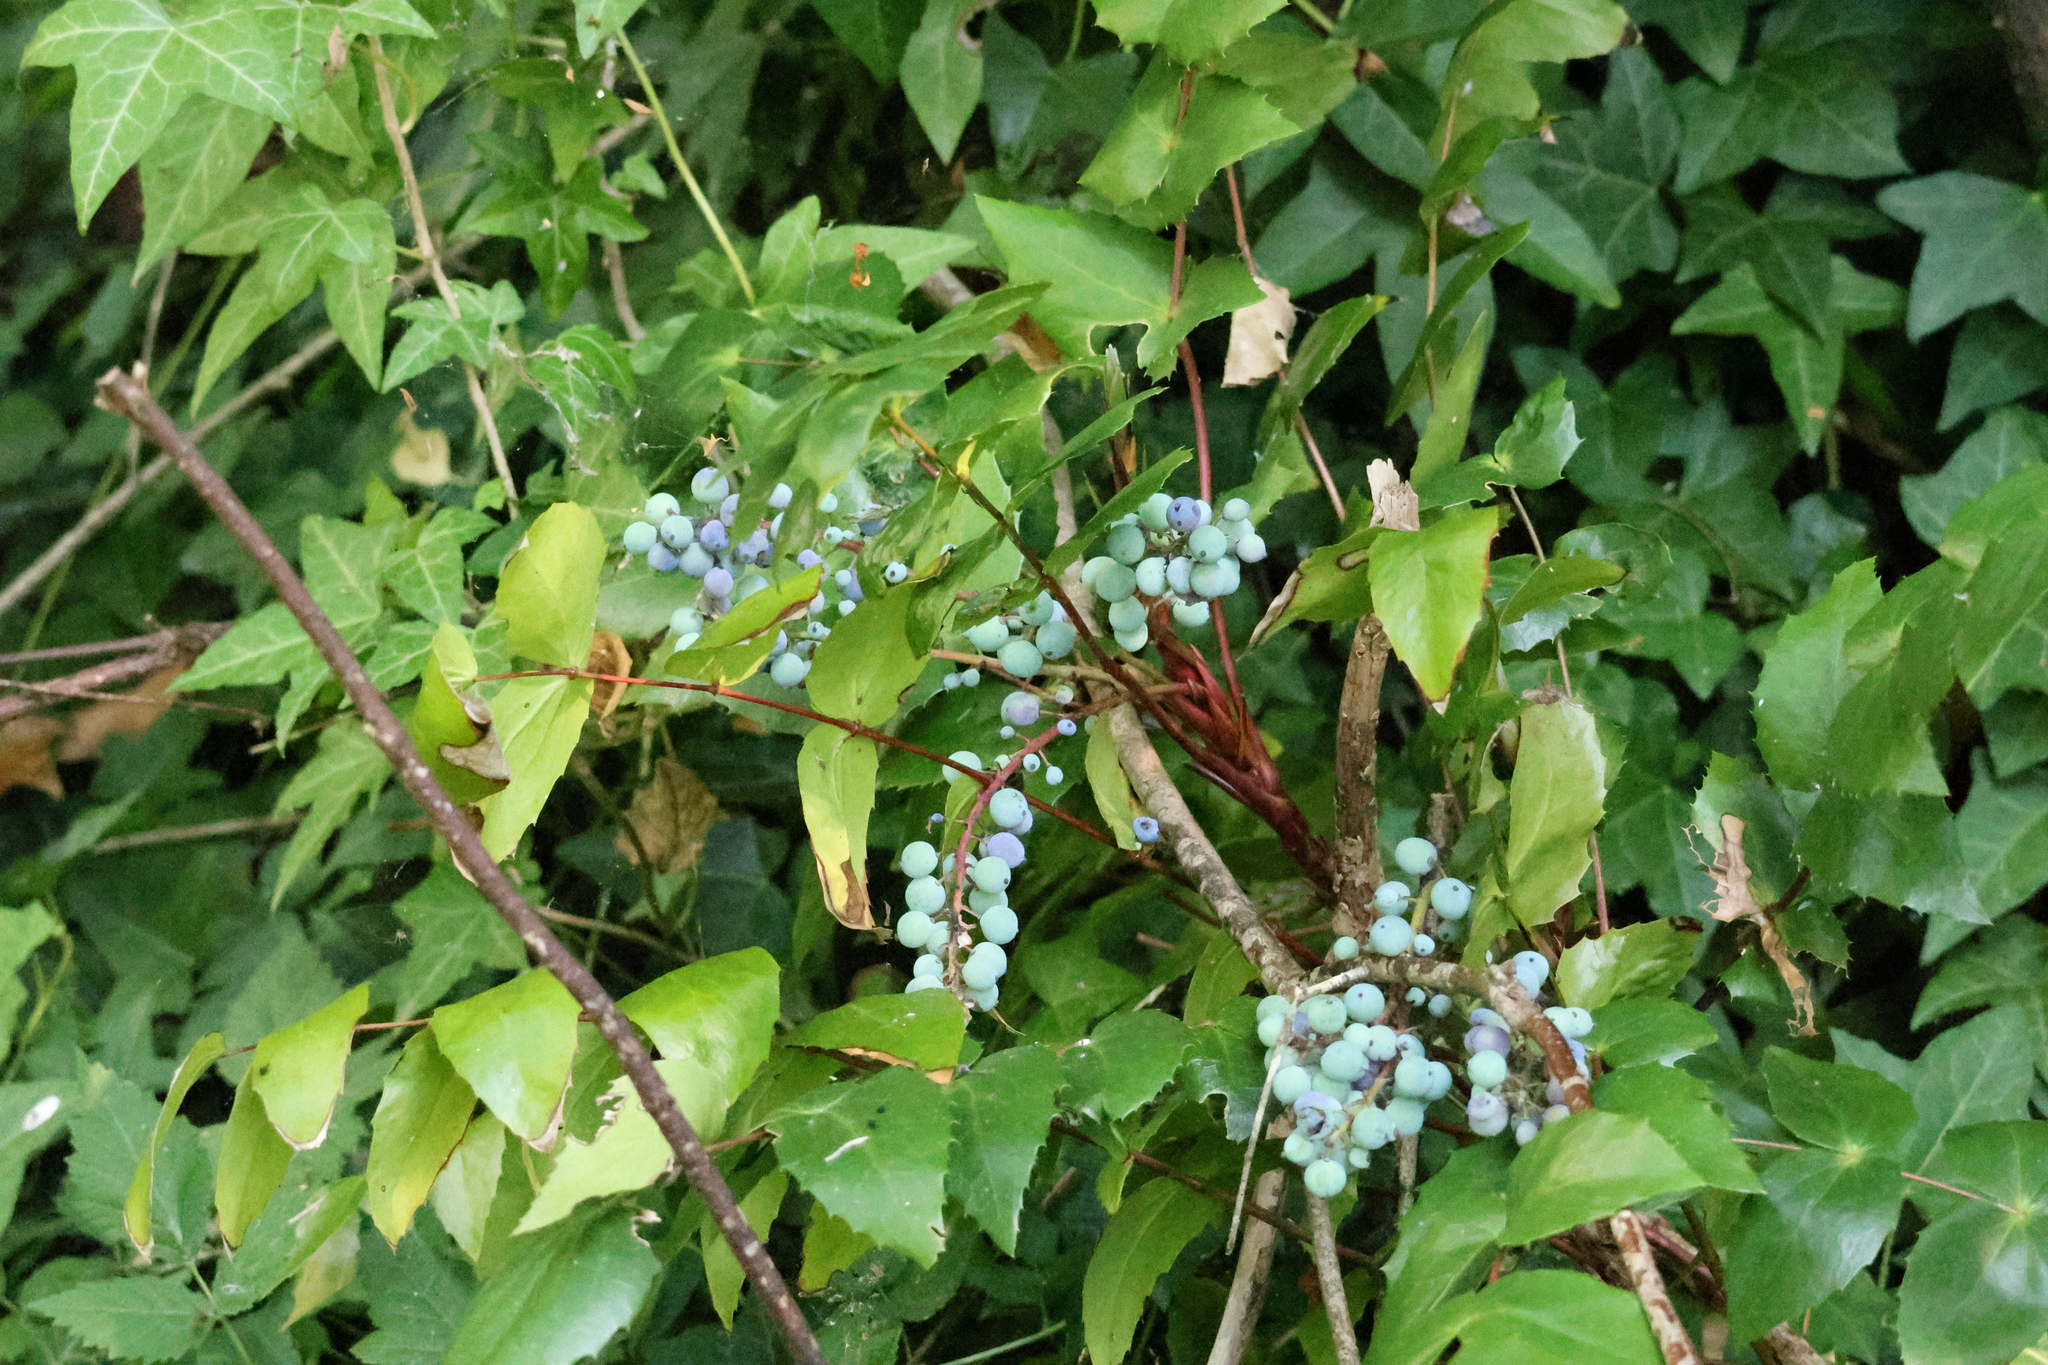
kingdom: Plantae
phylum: Tracheophyta
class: Magnoliopsida
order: Ranunculales
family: Berberidaceae
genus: Mahonia
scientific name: Mahonia nervosa
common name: Cascade oregon-grape
